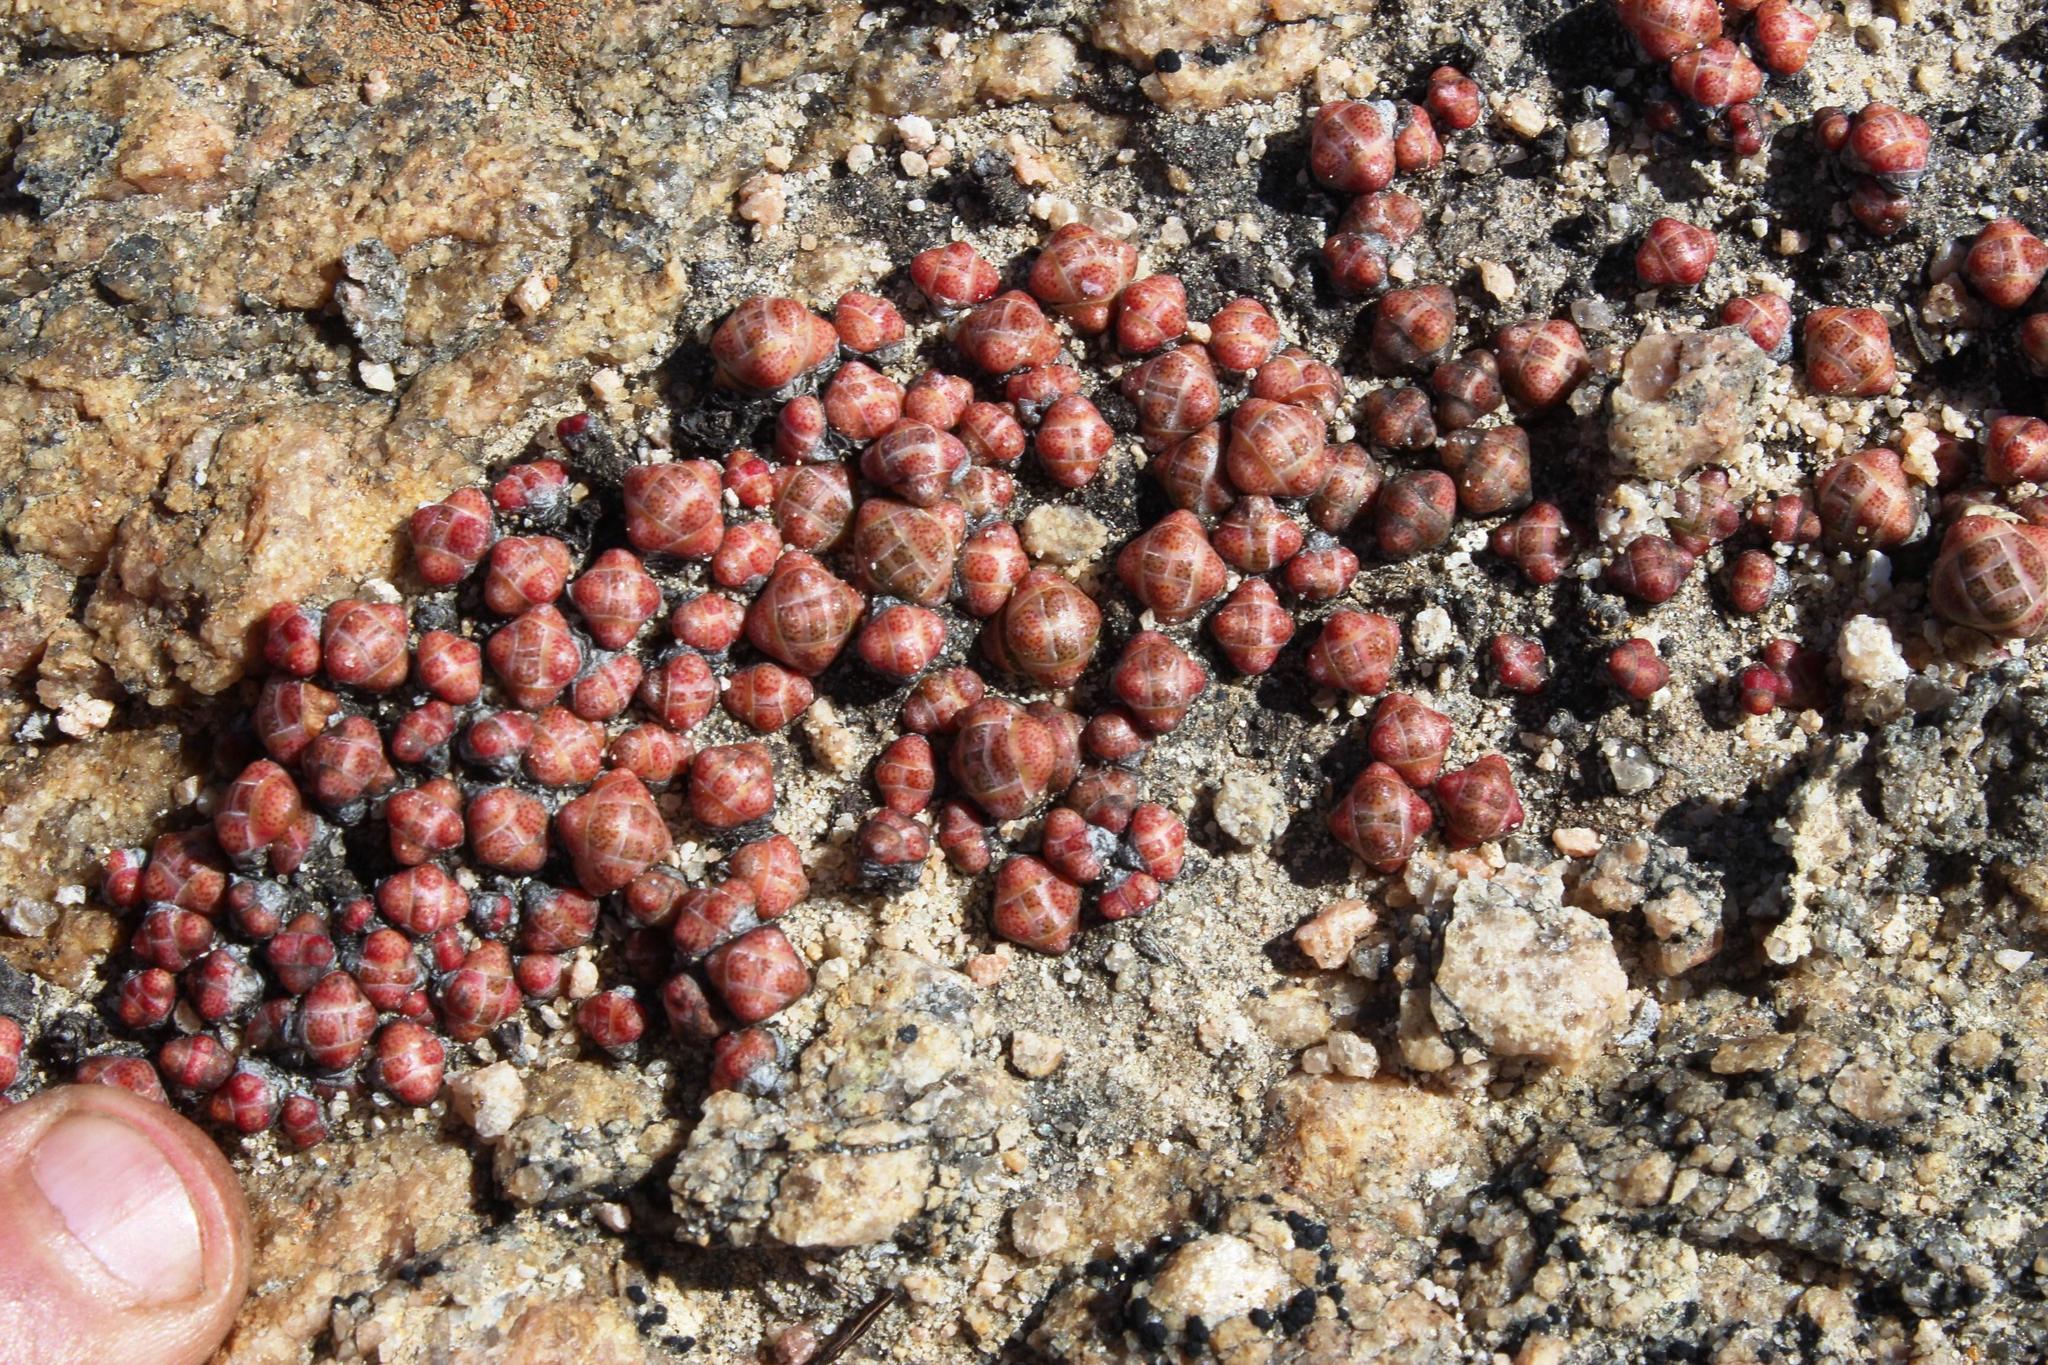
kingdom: Plantae
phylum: Tracheophyta
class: Magnoliopsida
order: Saxifragales
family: Crassulaceae
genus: Crassula
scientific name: Crassula barklyi
